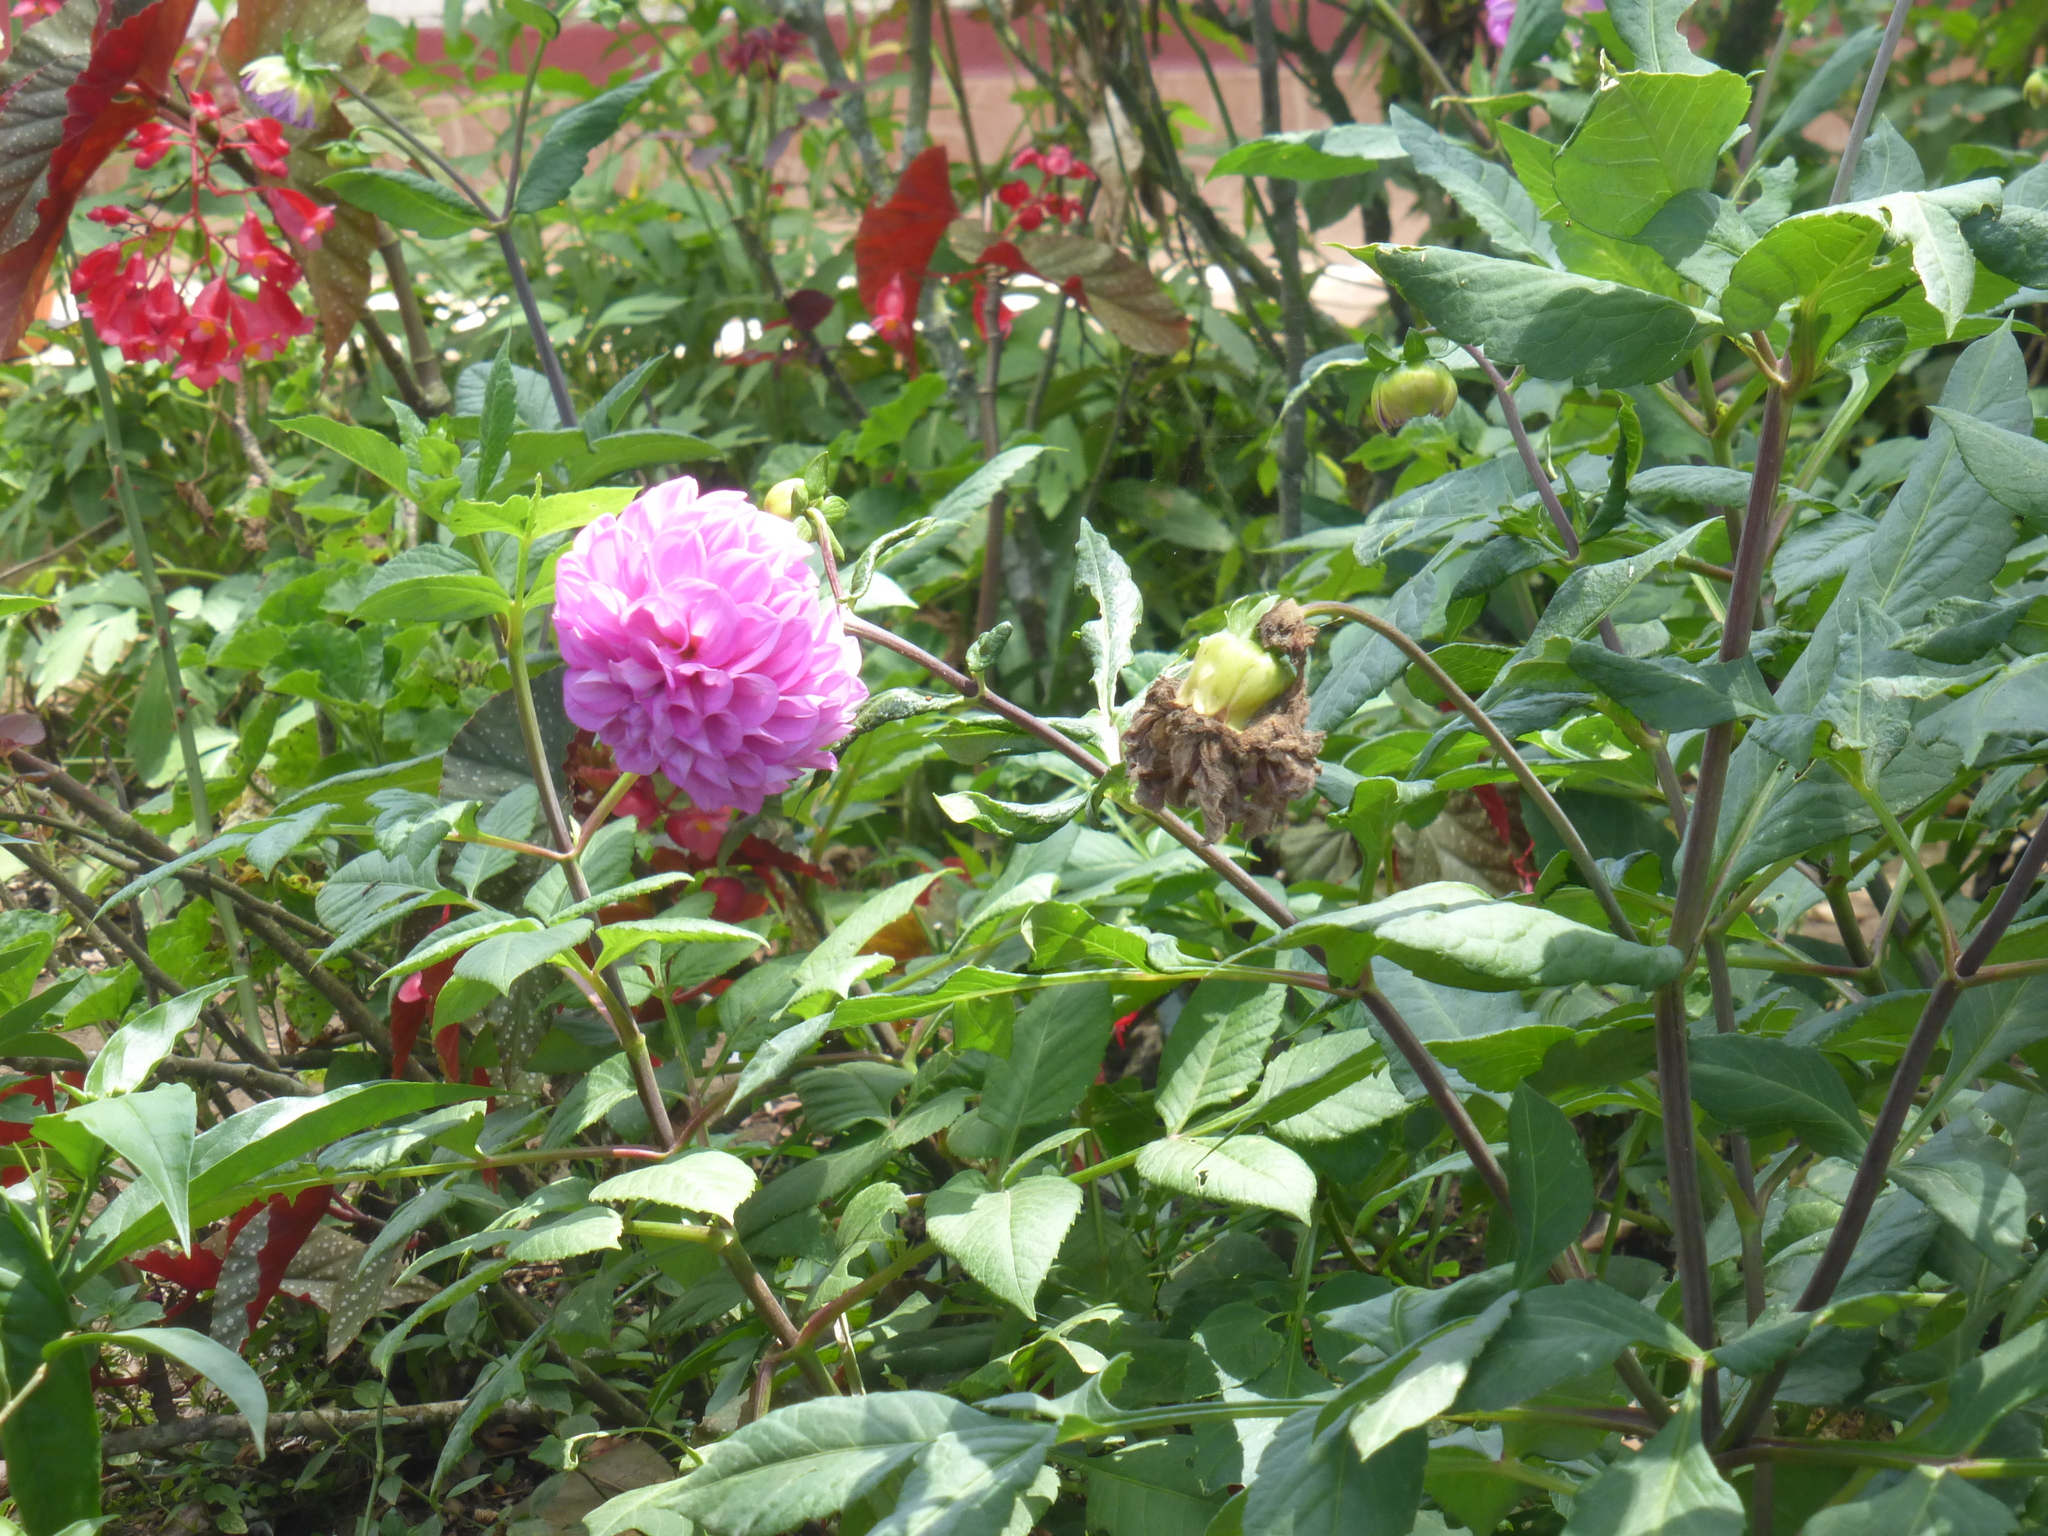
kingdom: Plantae
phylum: Tracheophyta
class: Magnoliopsida
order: Asterales
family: Asteraceae
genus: Dahlia
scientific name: Dahlia pinnata
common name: Dahlia
